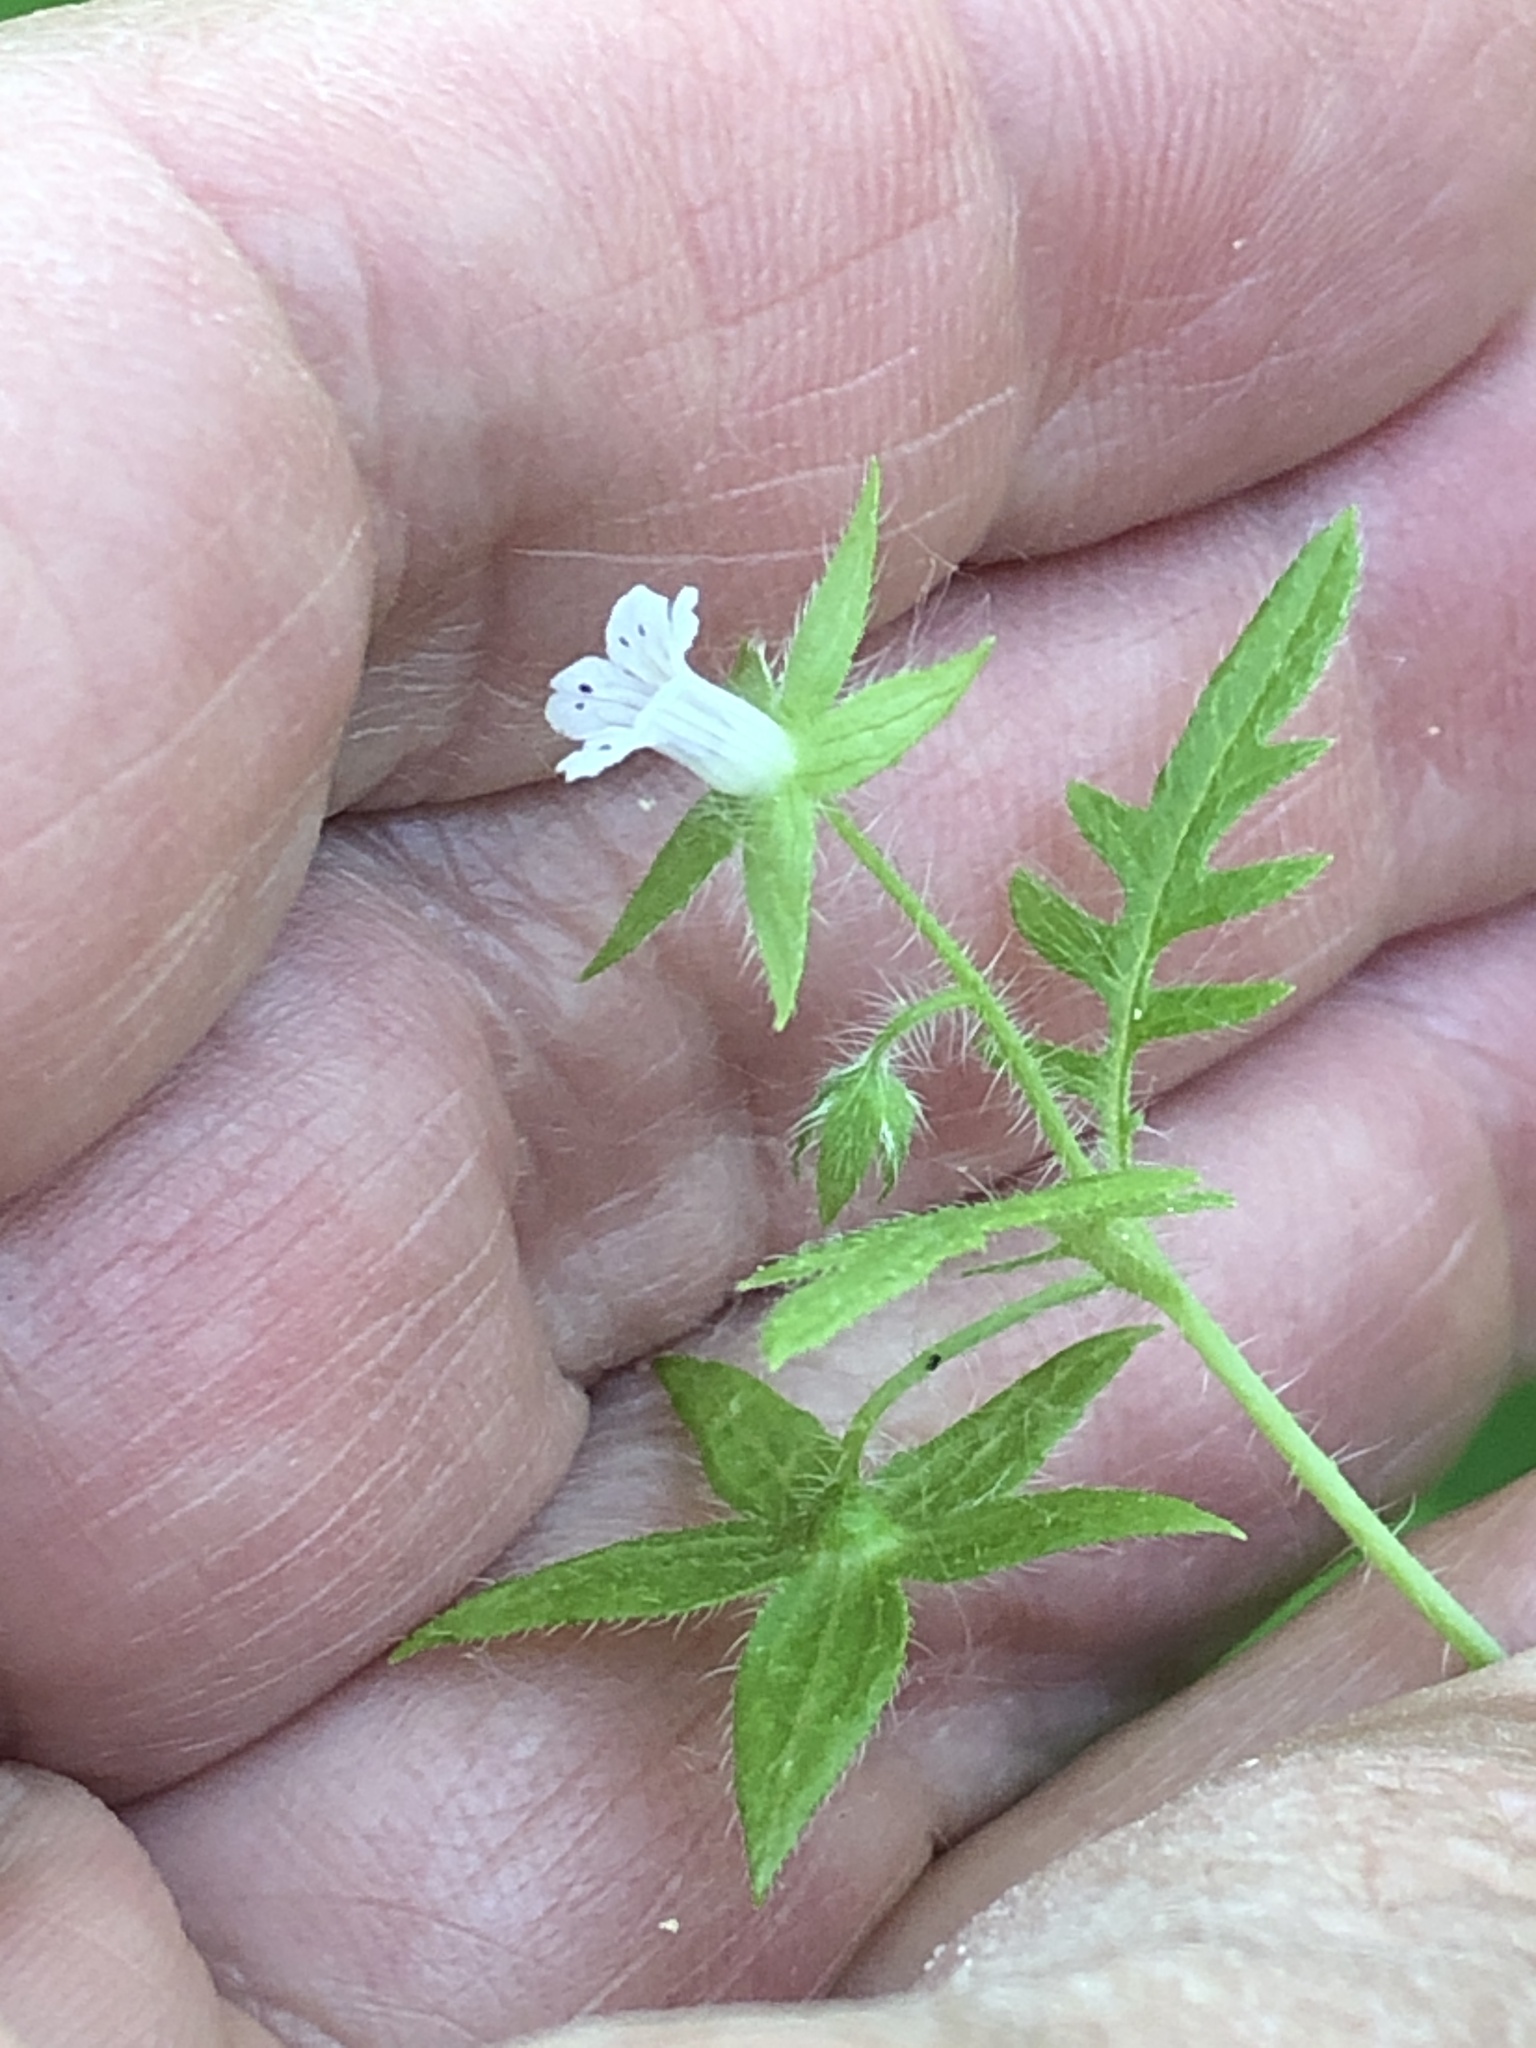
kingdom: Plantae
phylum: Tracheophyta
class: Magnoliopsida
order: Boraginales
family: Hydrophyllaceae
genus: Ellisia
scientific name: Ellisia nyctelea
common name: Aunt lucy
